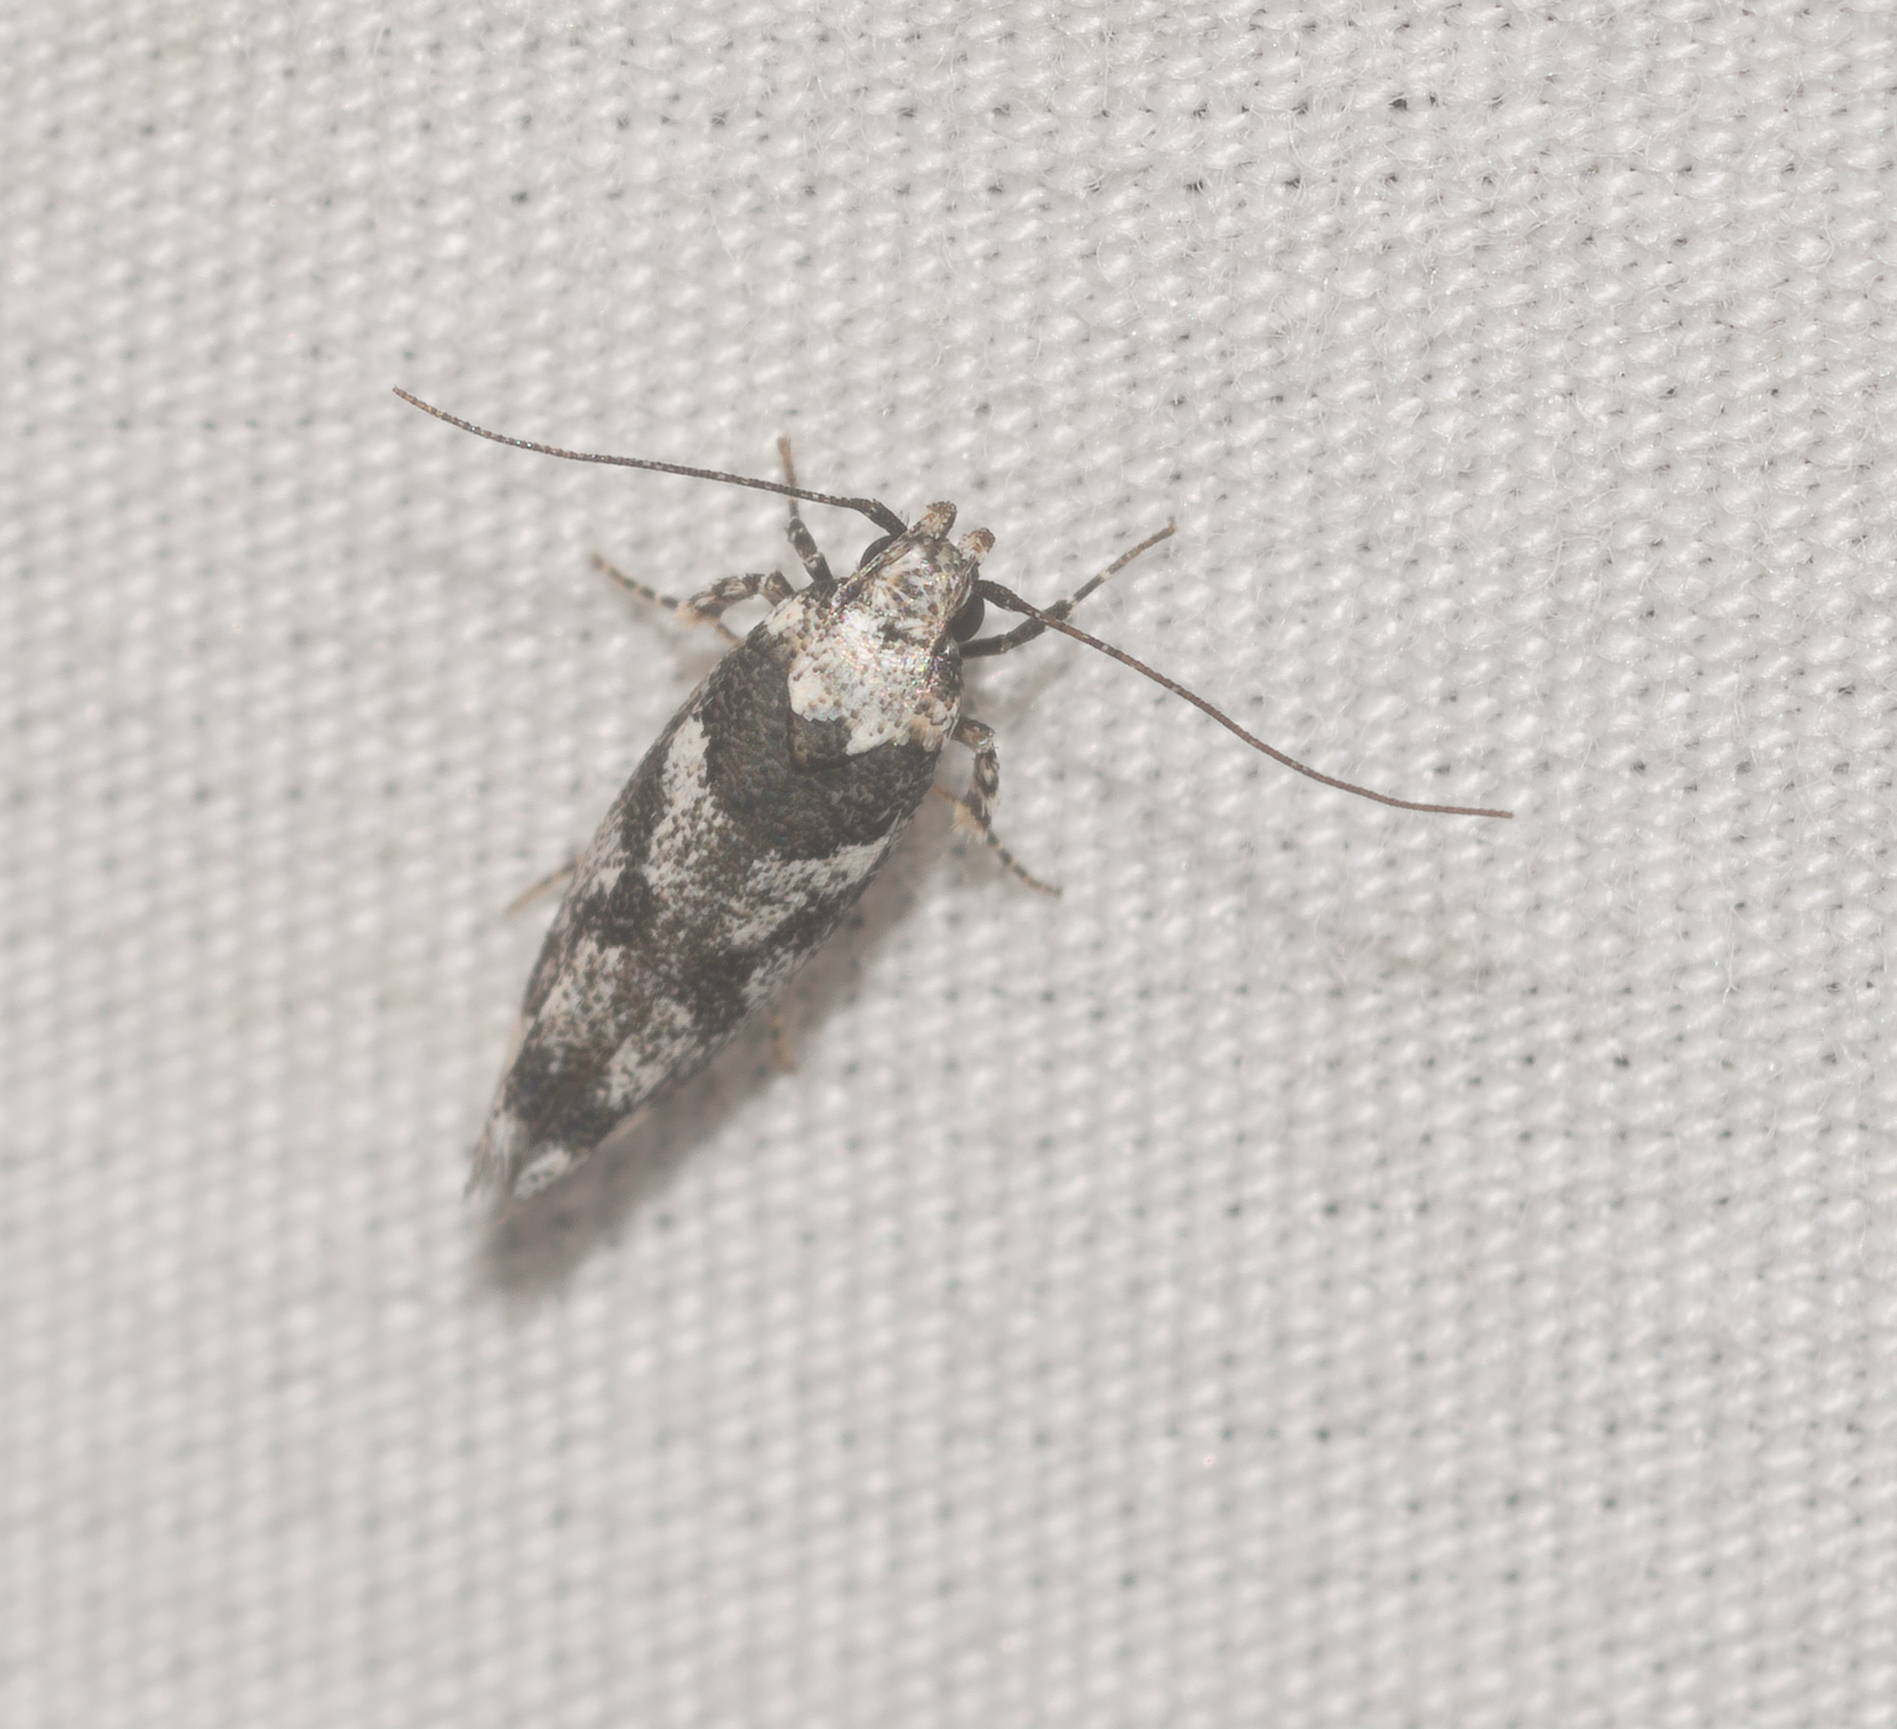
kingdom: Animalia
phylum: Arthropoda
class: Insecta
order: Lepidoptera
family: Cosmopterigidae
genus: Hyposmochoma
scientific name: Hyposmochoma empedota
